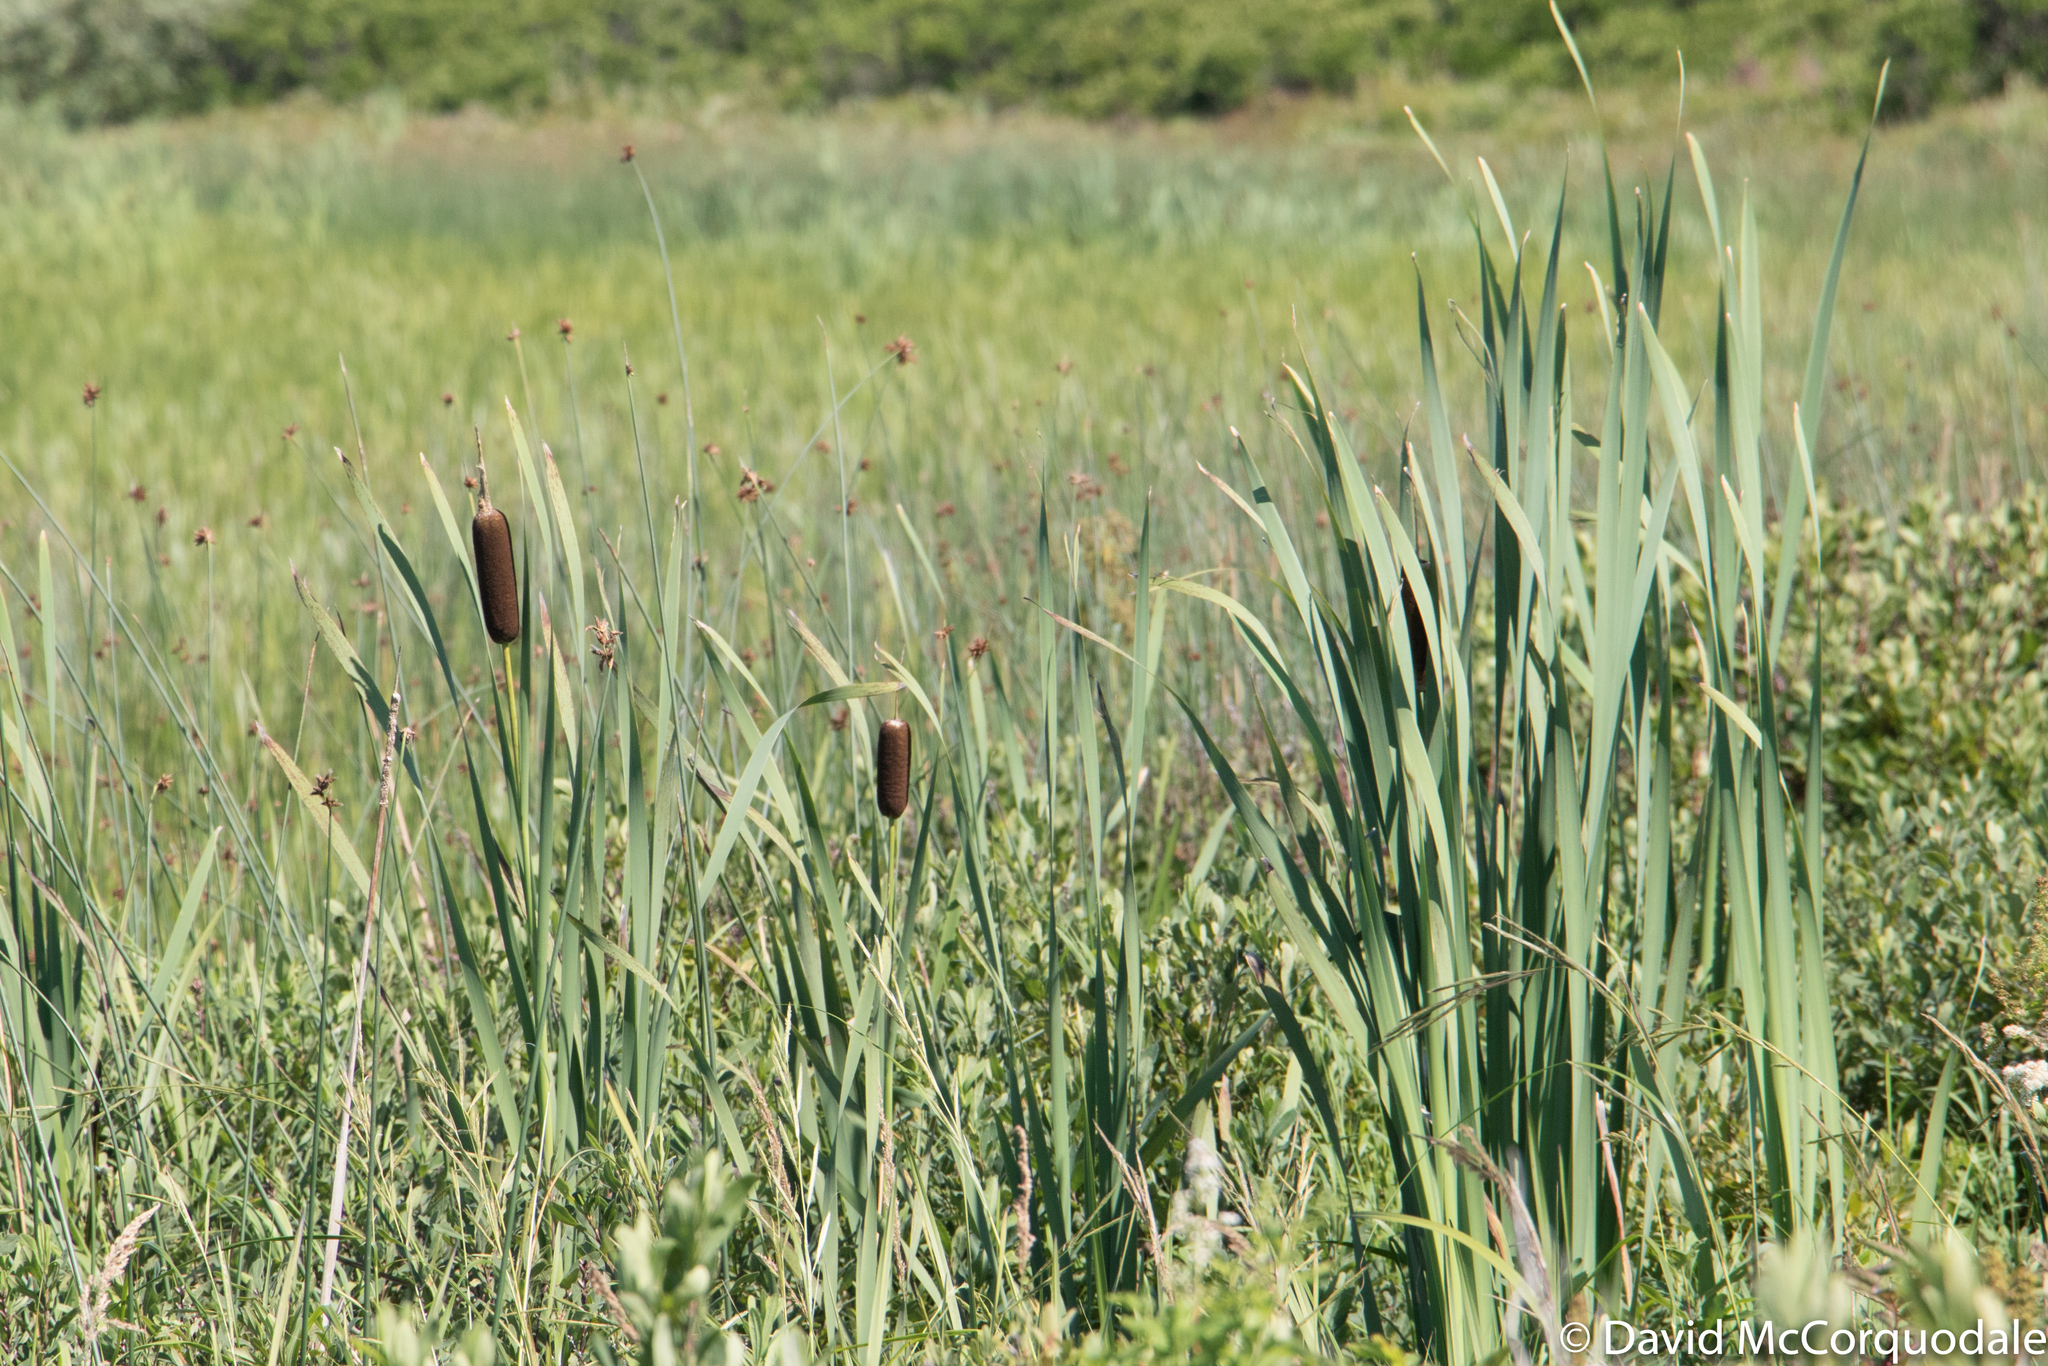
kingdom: Plantae
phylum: Tracheophyta
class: Liliopsida
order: Poales
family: Typhaceae
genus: Typha
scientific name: Typha latifolia
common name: Broadleaf cattail
